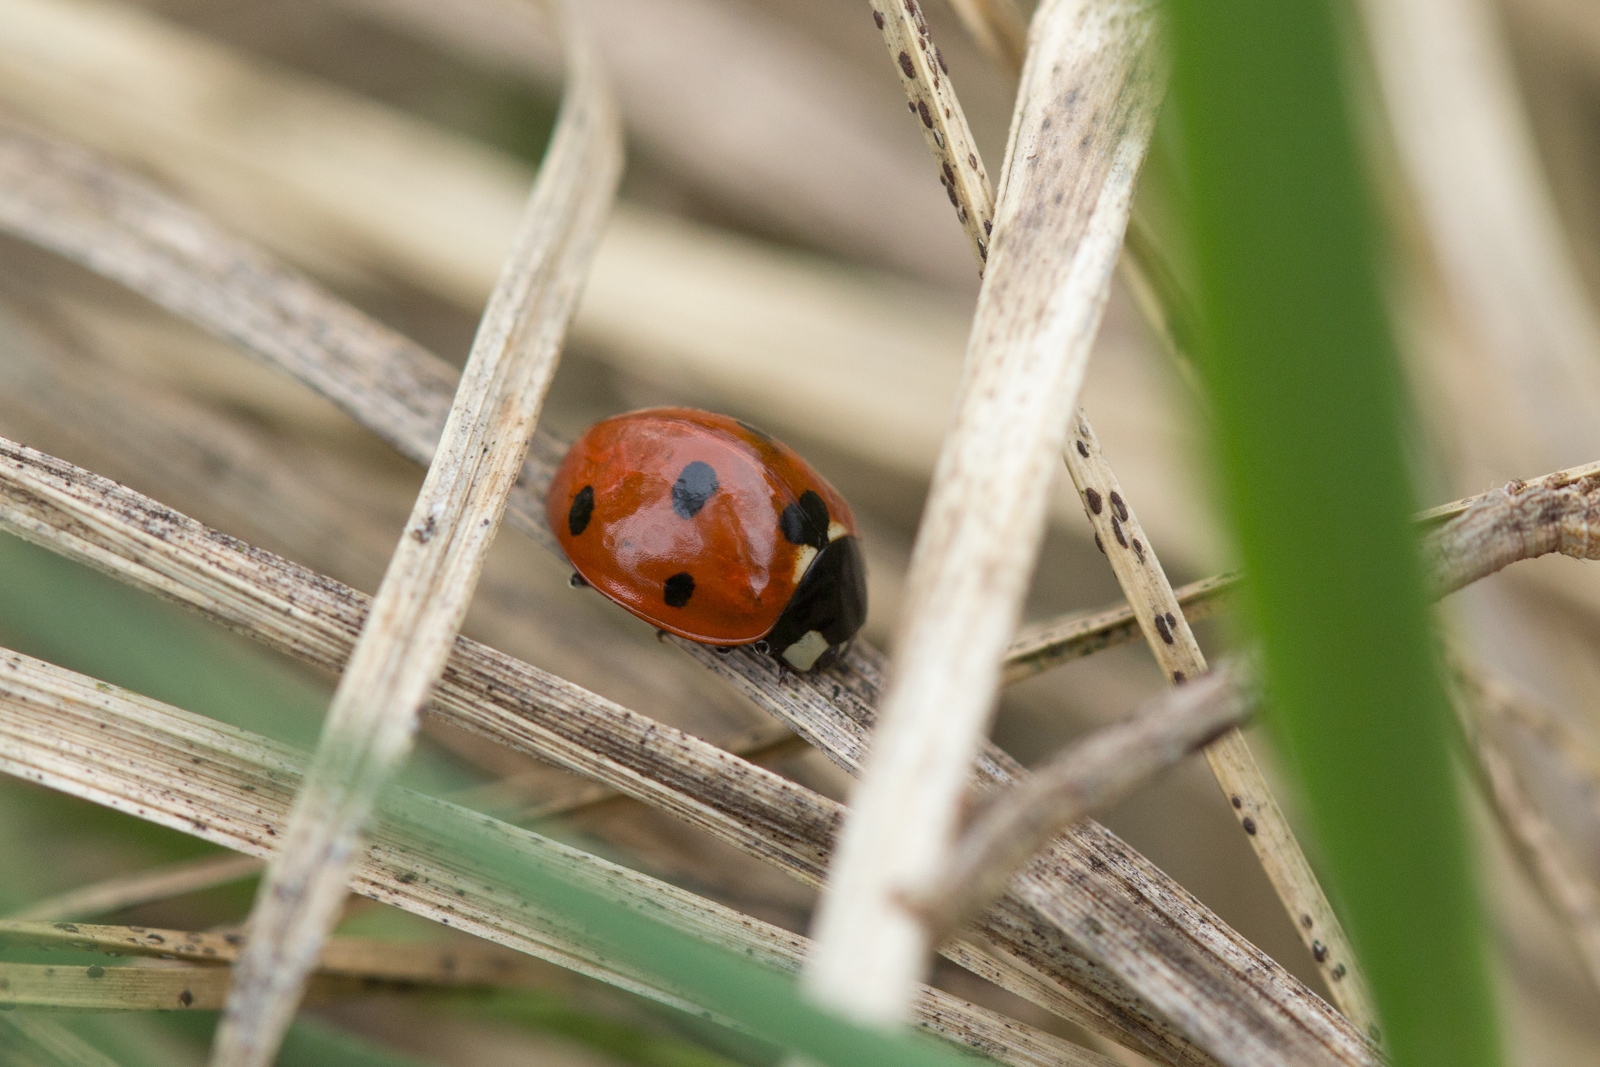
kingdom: Animalia
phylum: Arthropoda
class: Insecta
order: Coleoptera
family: Coccinellidae
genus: Coccinella
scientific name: Coccinella septempunctata
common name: Sevenspotted lady beetle
